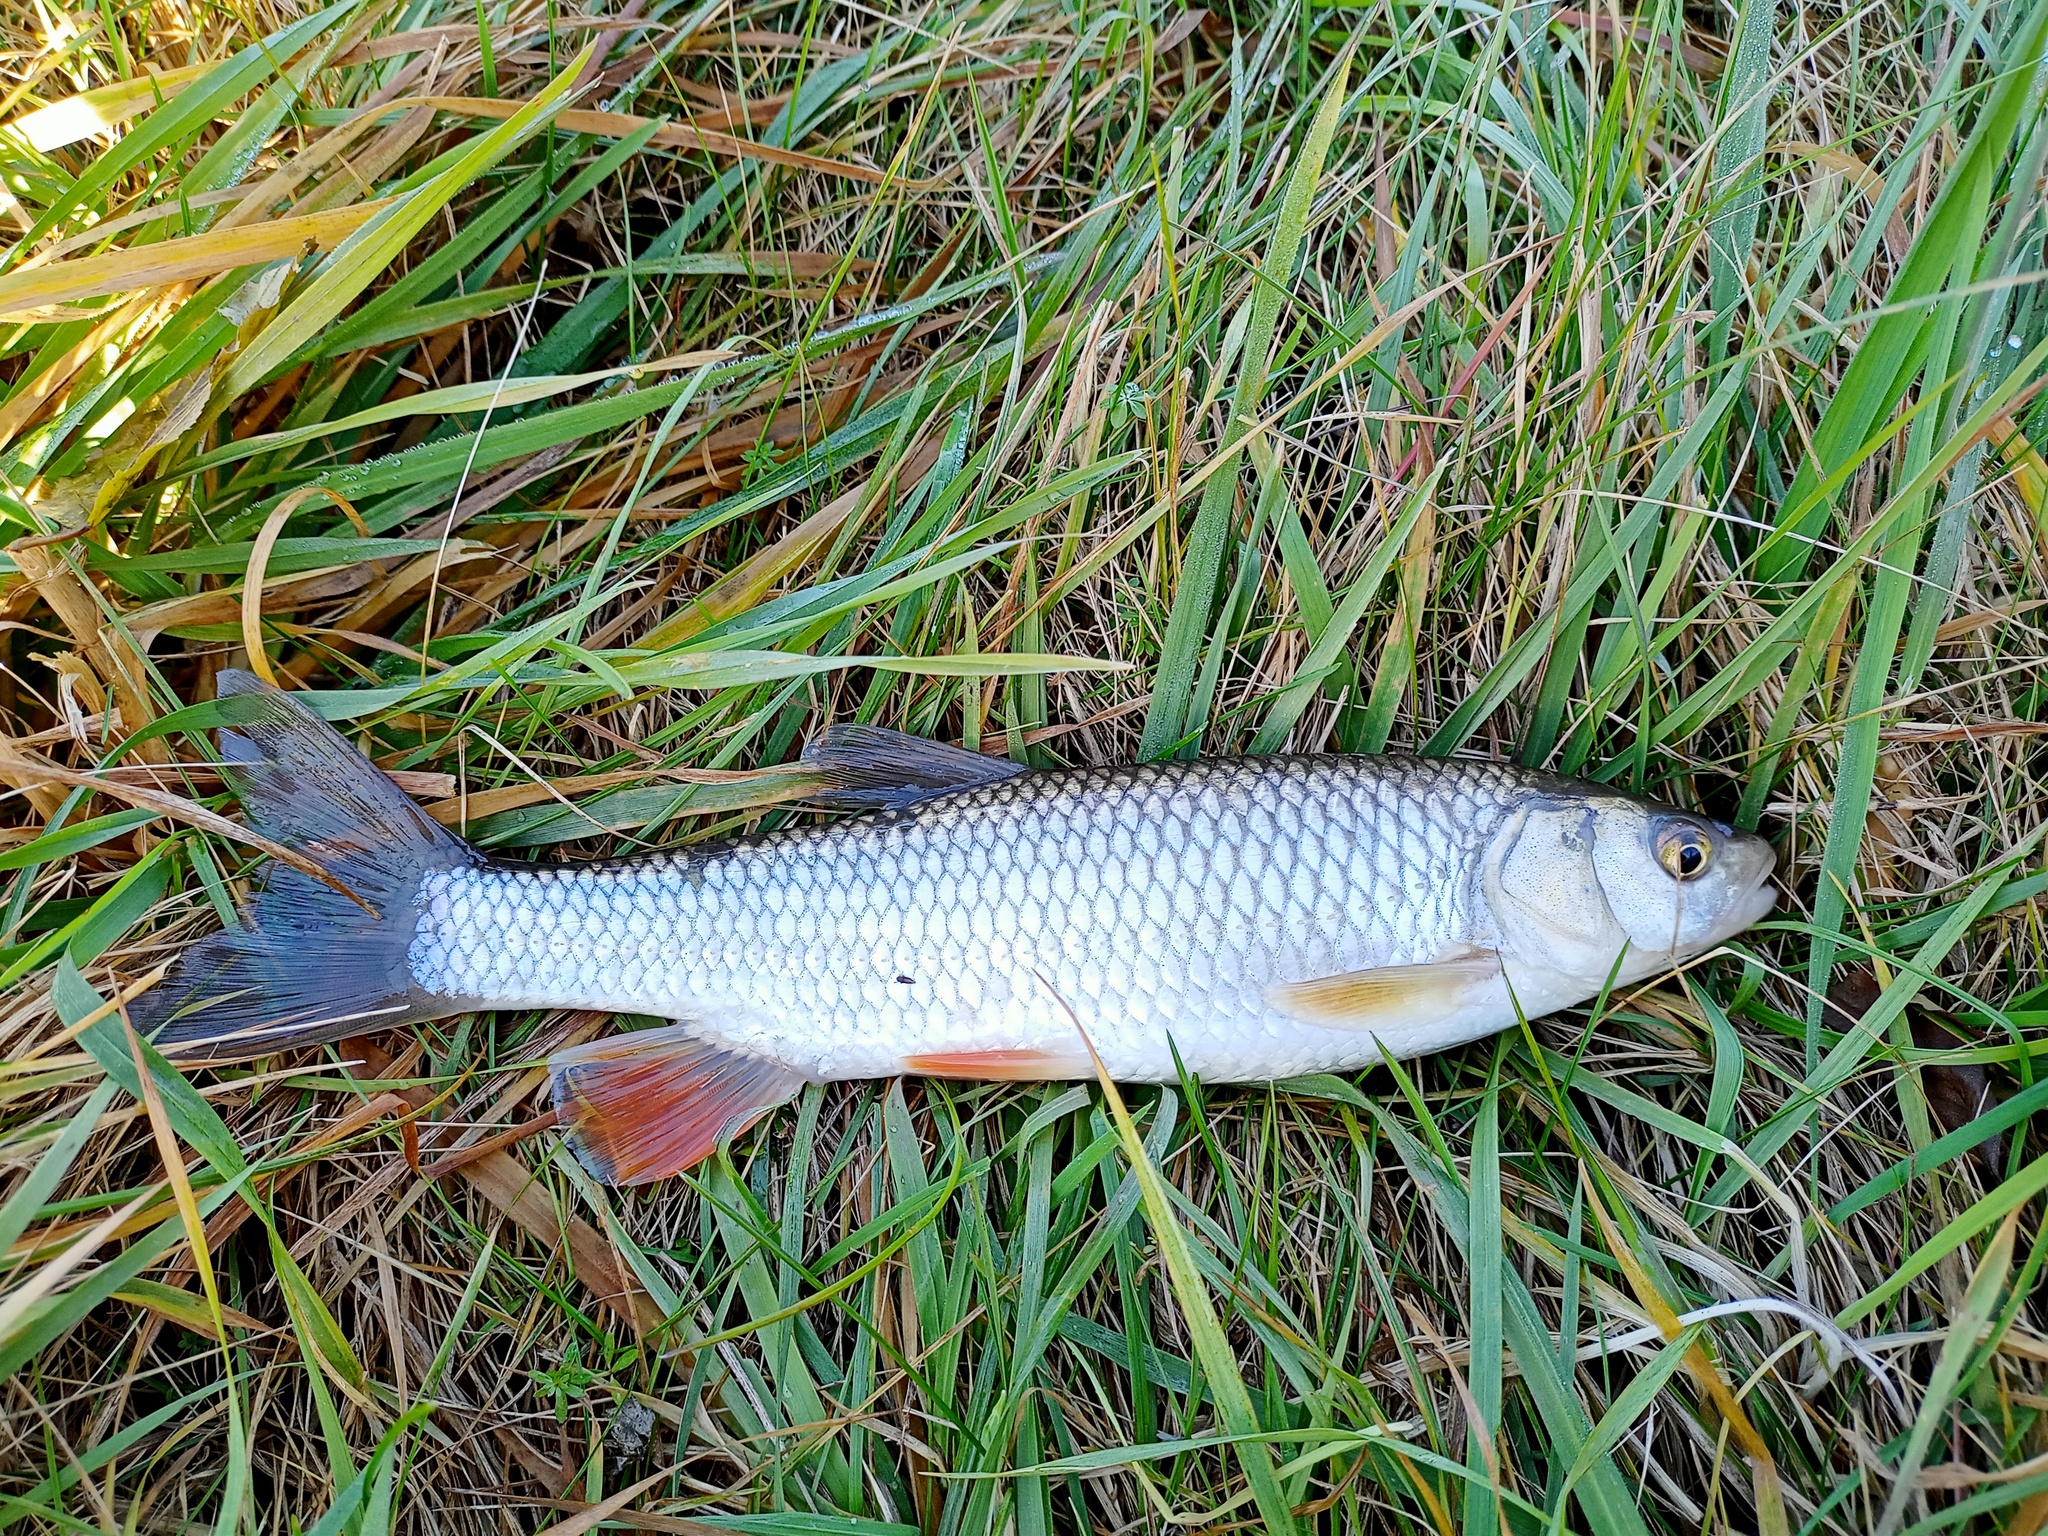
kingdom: Animalia
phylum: Chordata
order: Cypriniformes
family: Cyprinidae
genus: Squalius
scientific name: Squalius cephalus
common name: Chub
